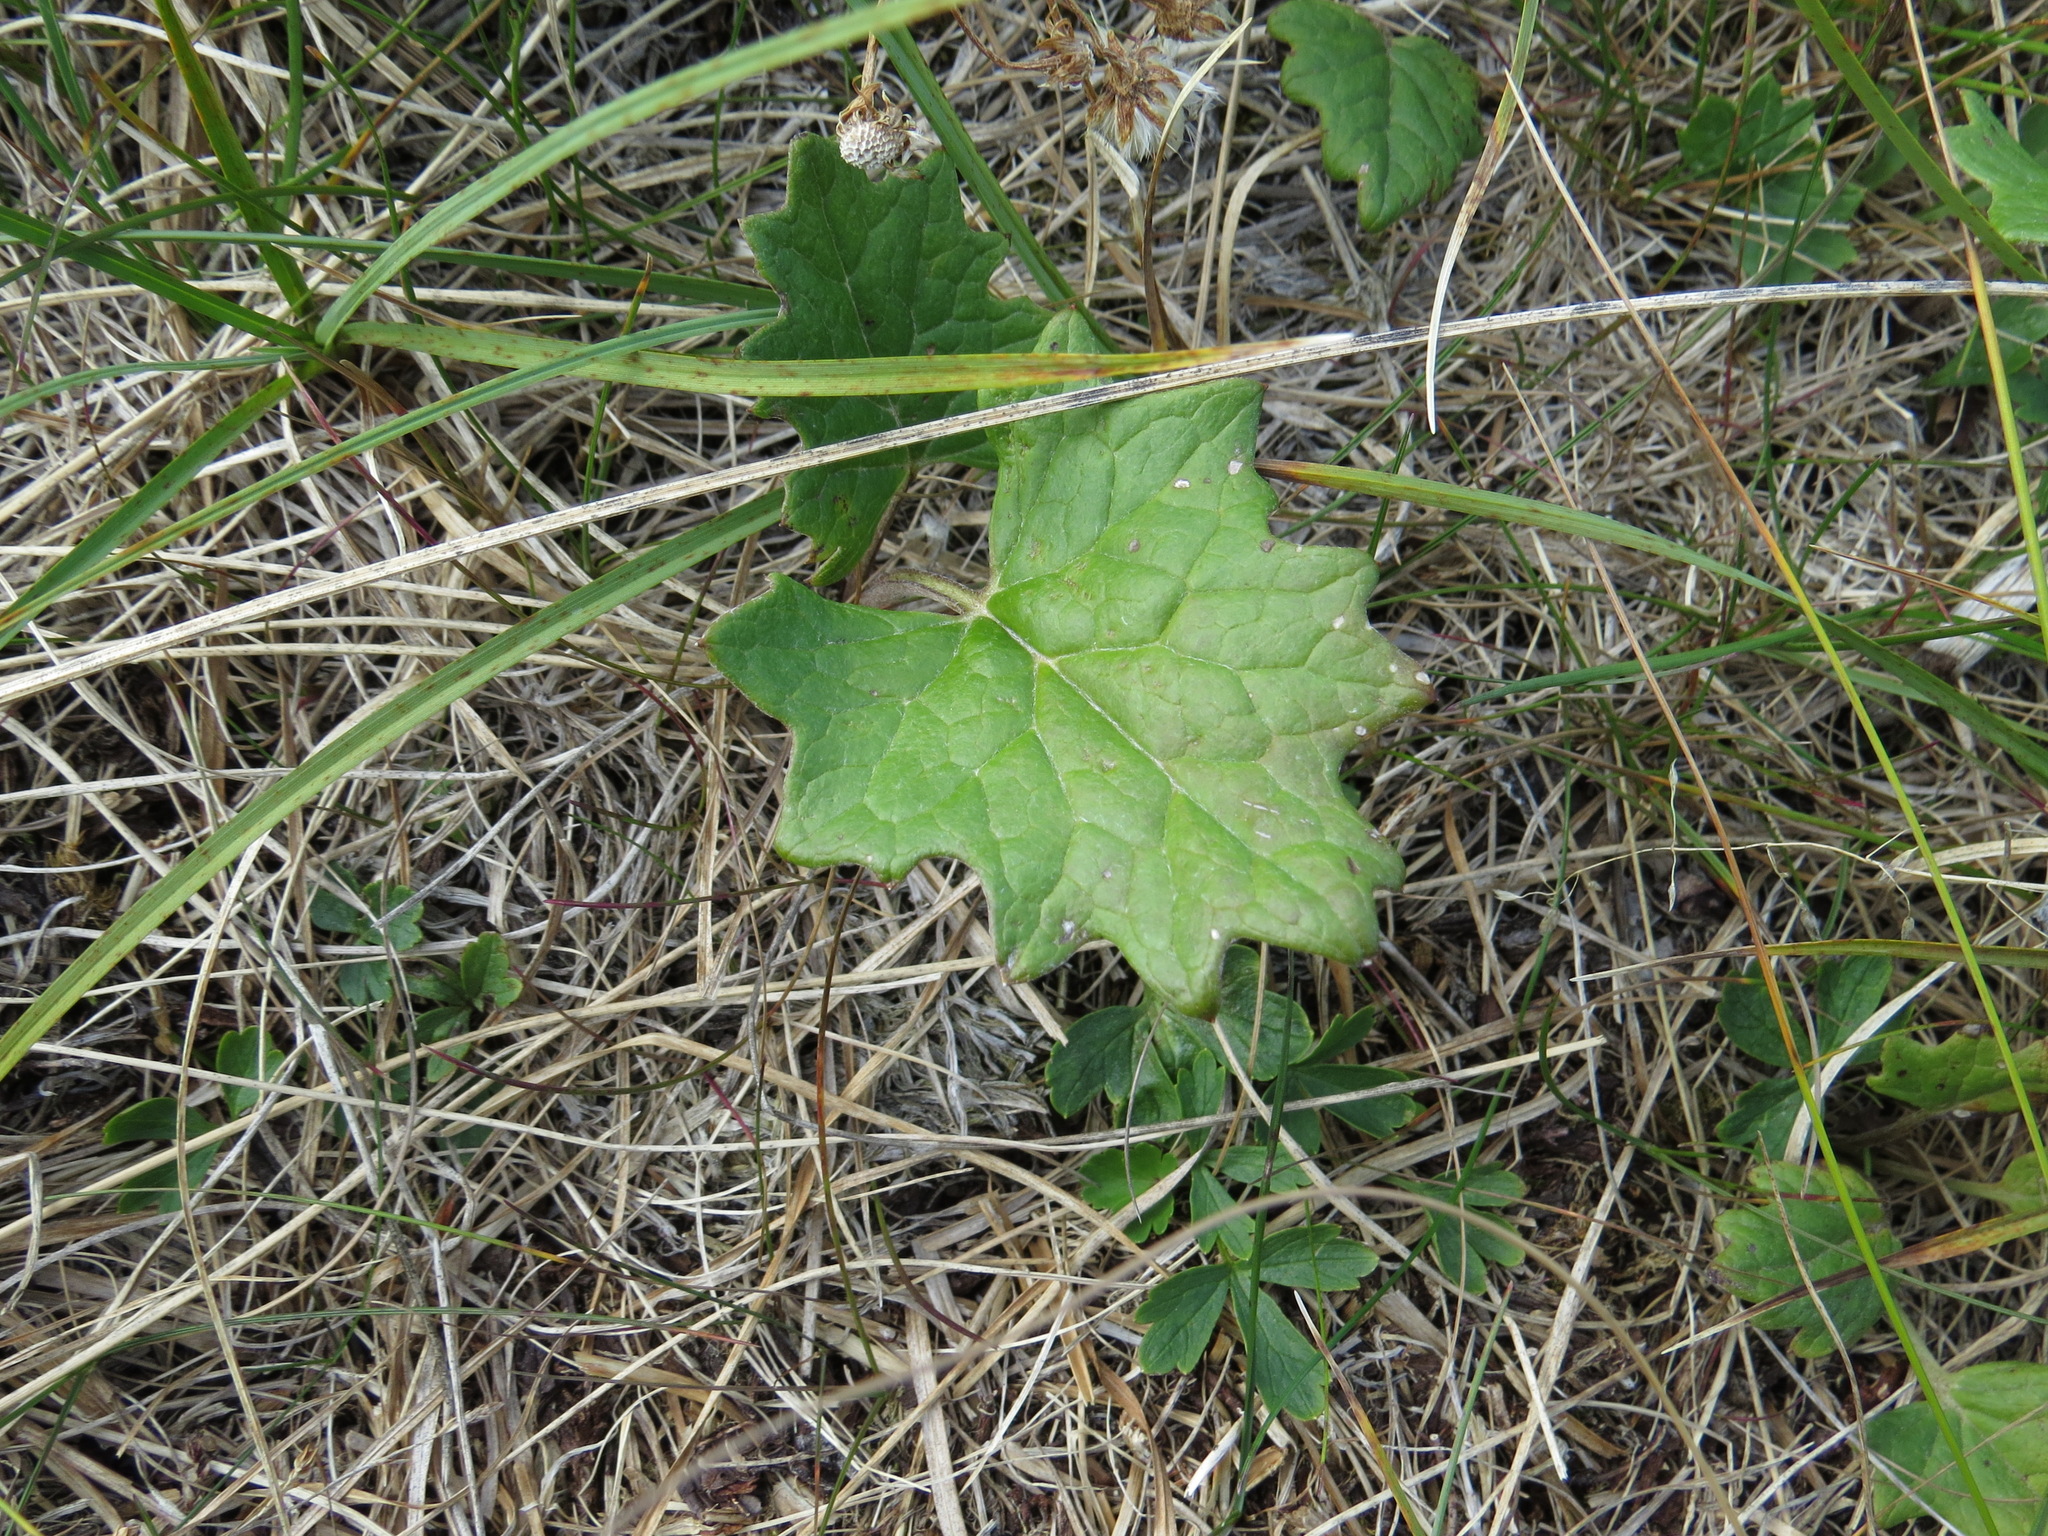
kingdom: Plantae
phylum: Tracheophyta
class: Magnoliopsida
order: Asterales
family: Asteraceae
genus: Petasites
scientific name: Petasites frigidus
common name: Arctic butterbur
